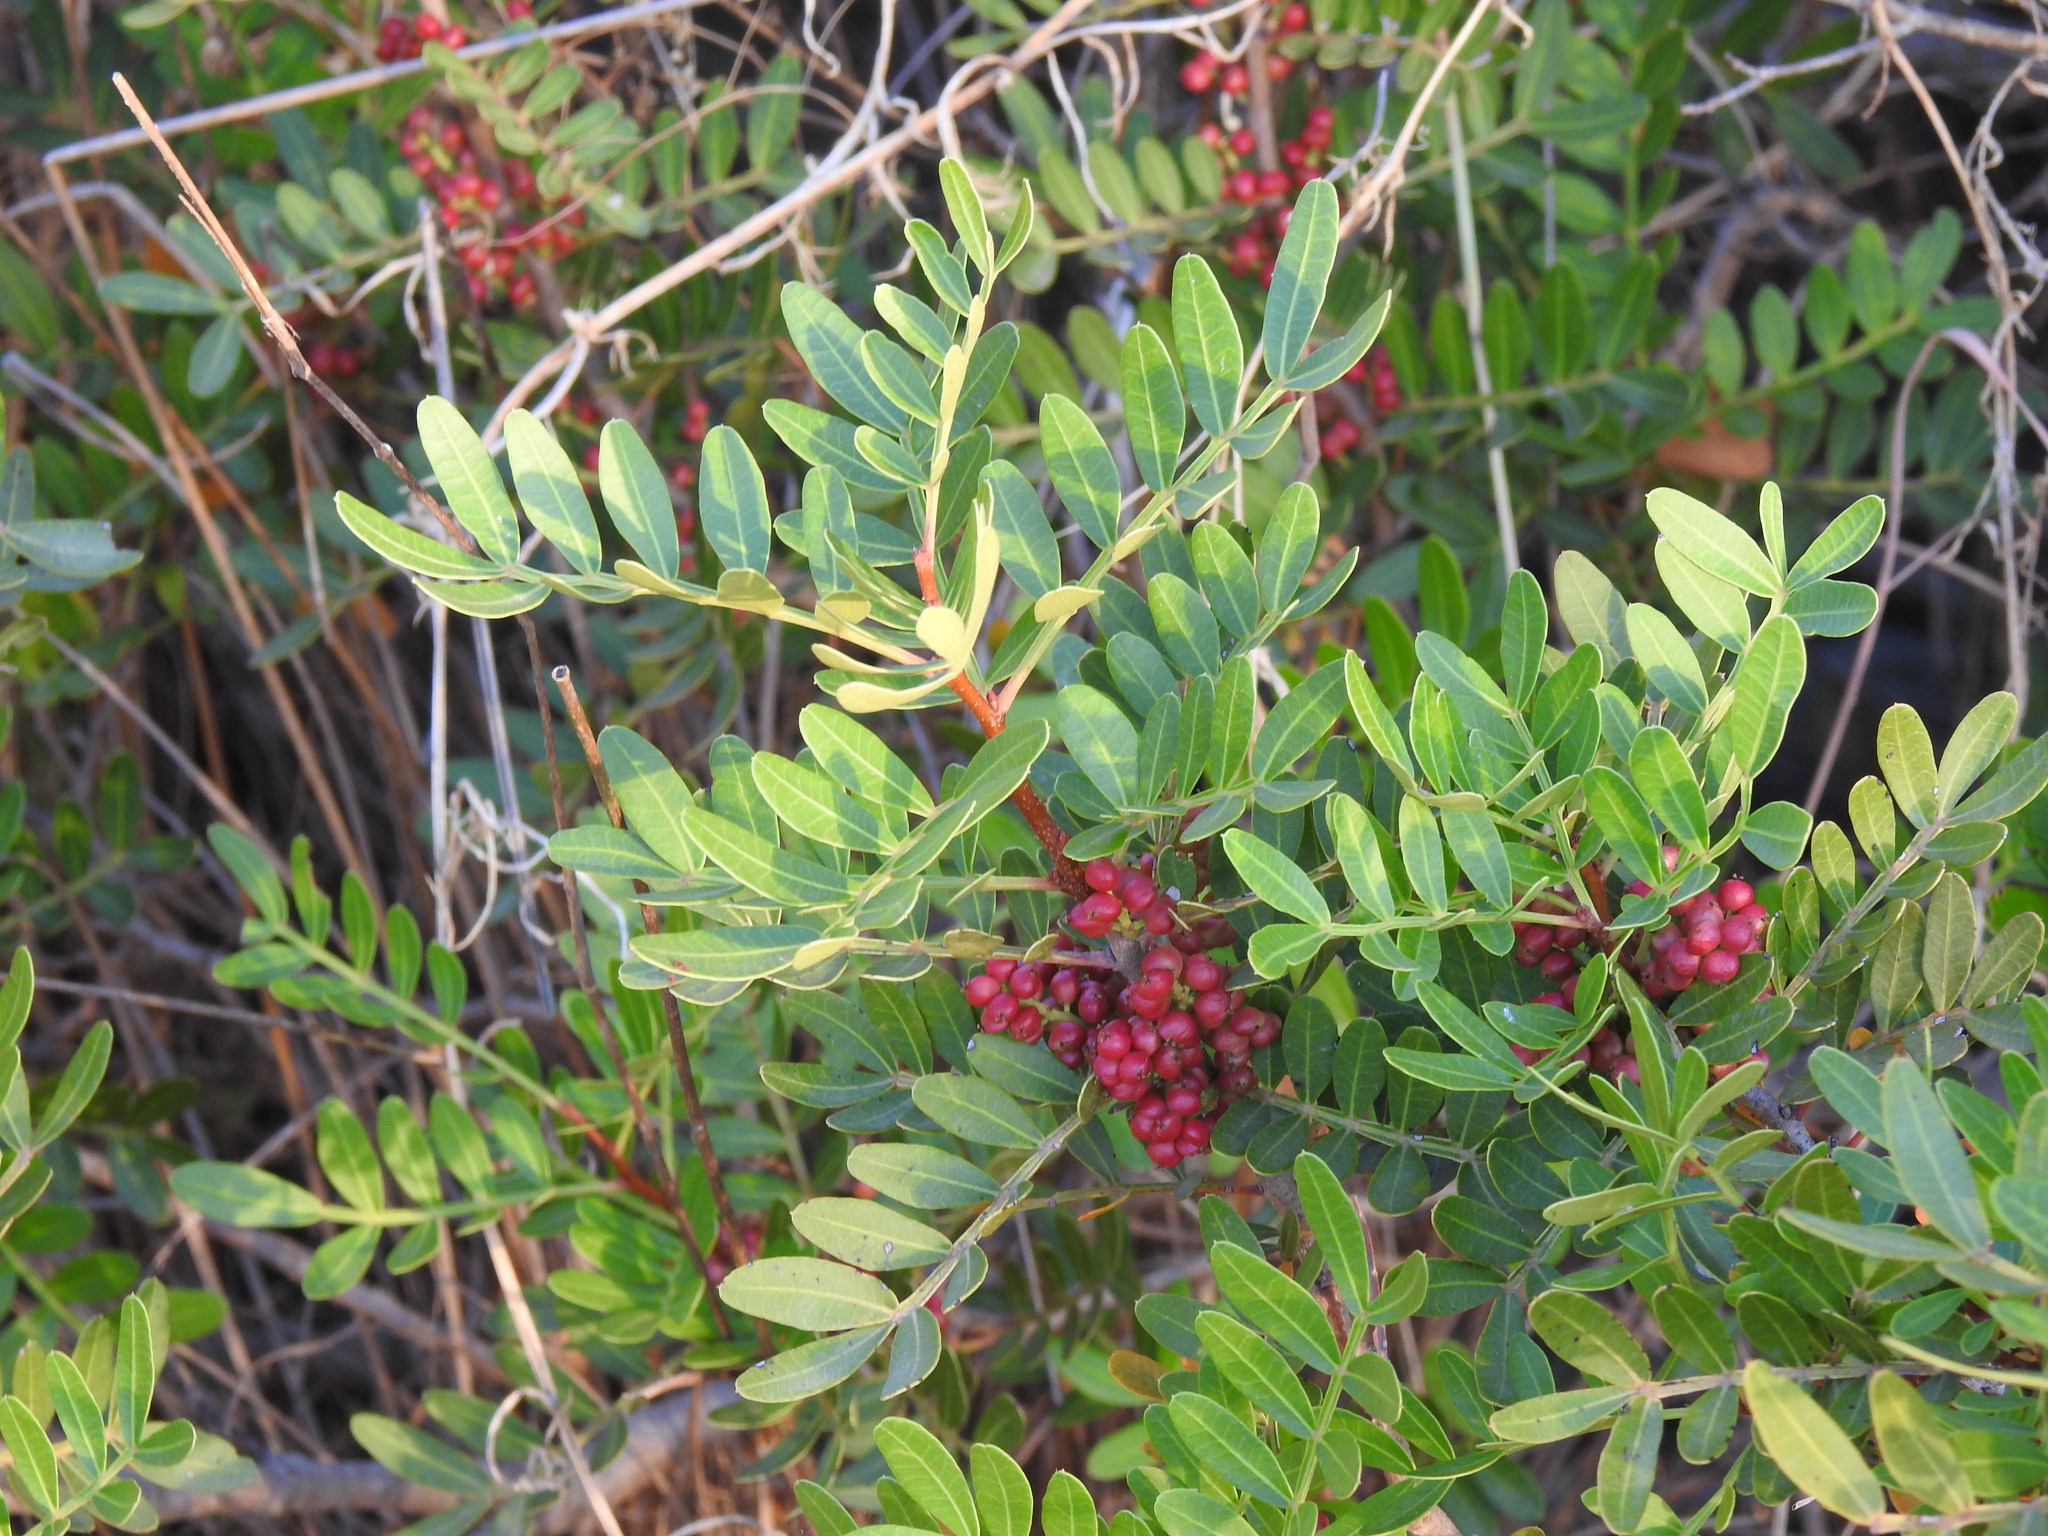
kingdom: Plantae
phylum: Tracheophyta
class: Magnoliopsida
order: Sapindales
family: Anacardiaceae
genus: Pistacia
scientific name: Pistacia lentiscus
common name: Lentisk
